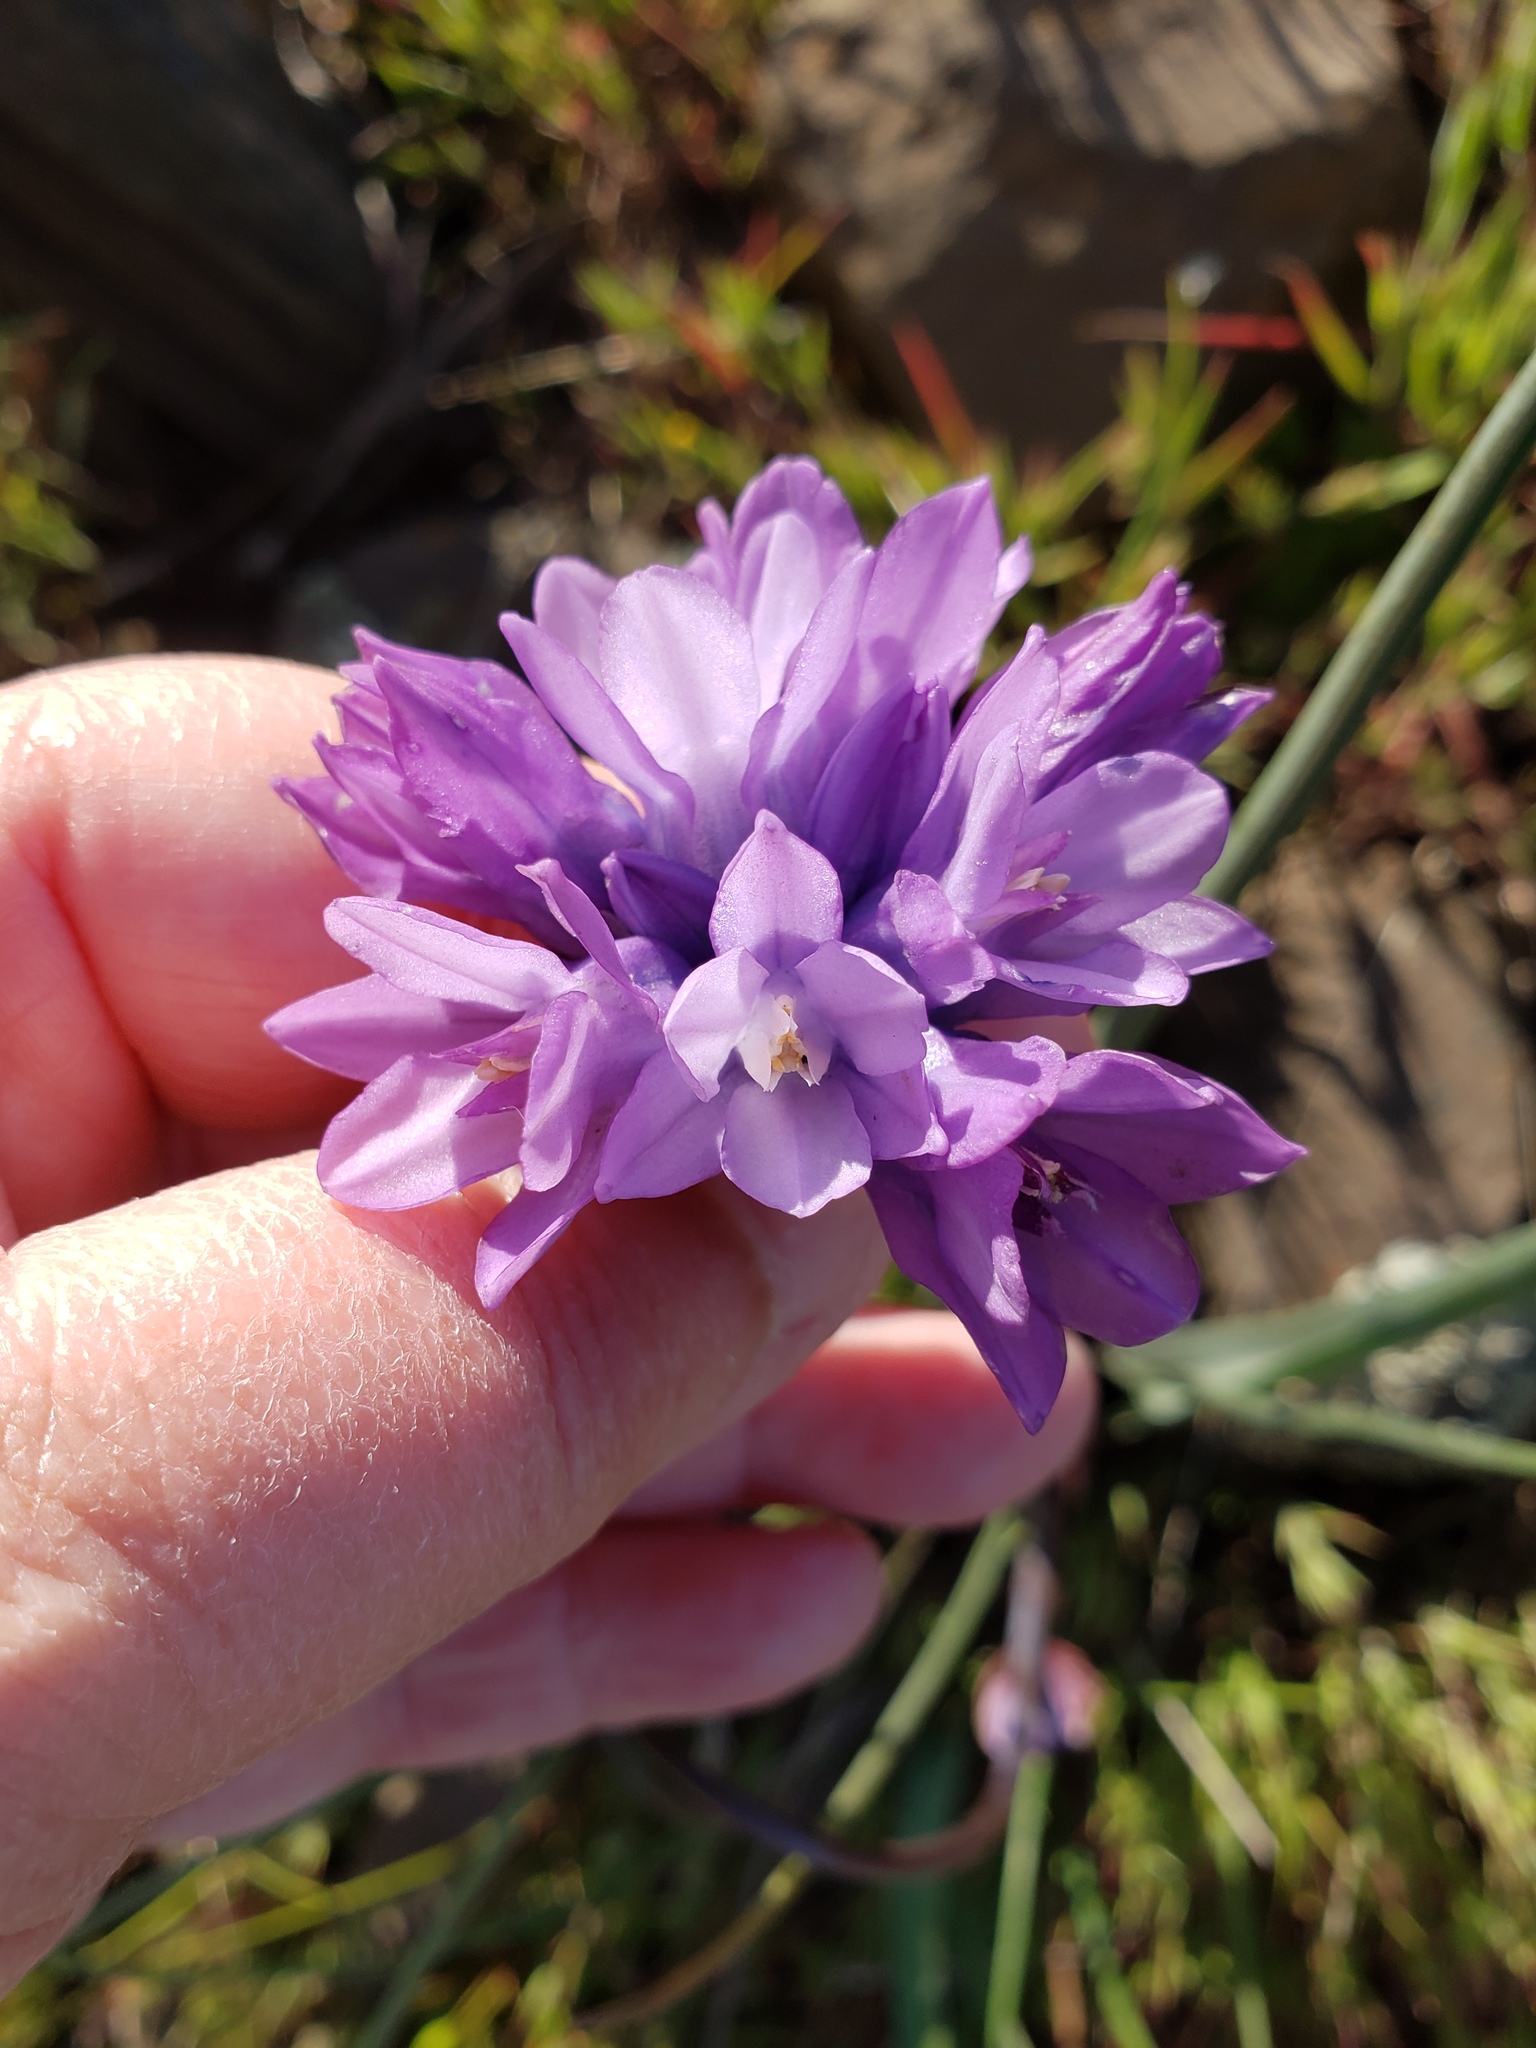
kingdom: Plantae
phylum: Tracheophyta
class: Liliopsida
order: Asparagales
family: Asparagaceae
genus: Dipterostemon
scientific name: Dipterostemon capitatus
